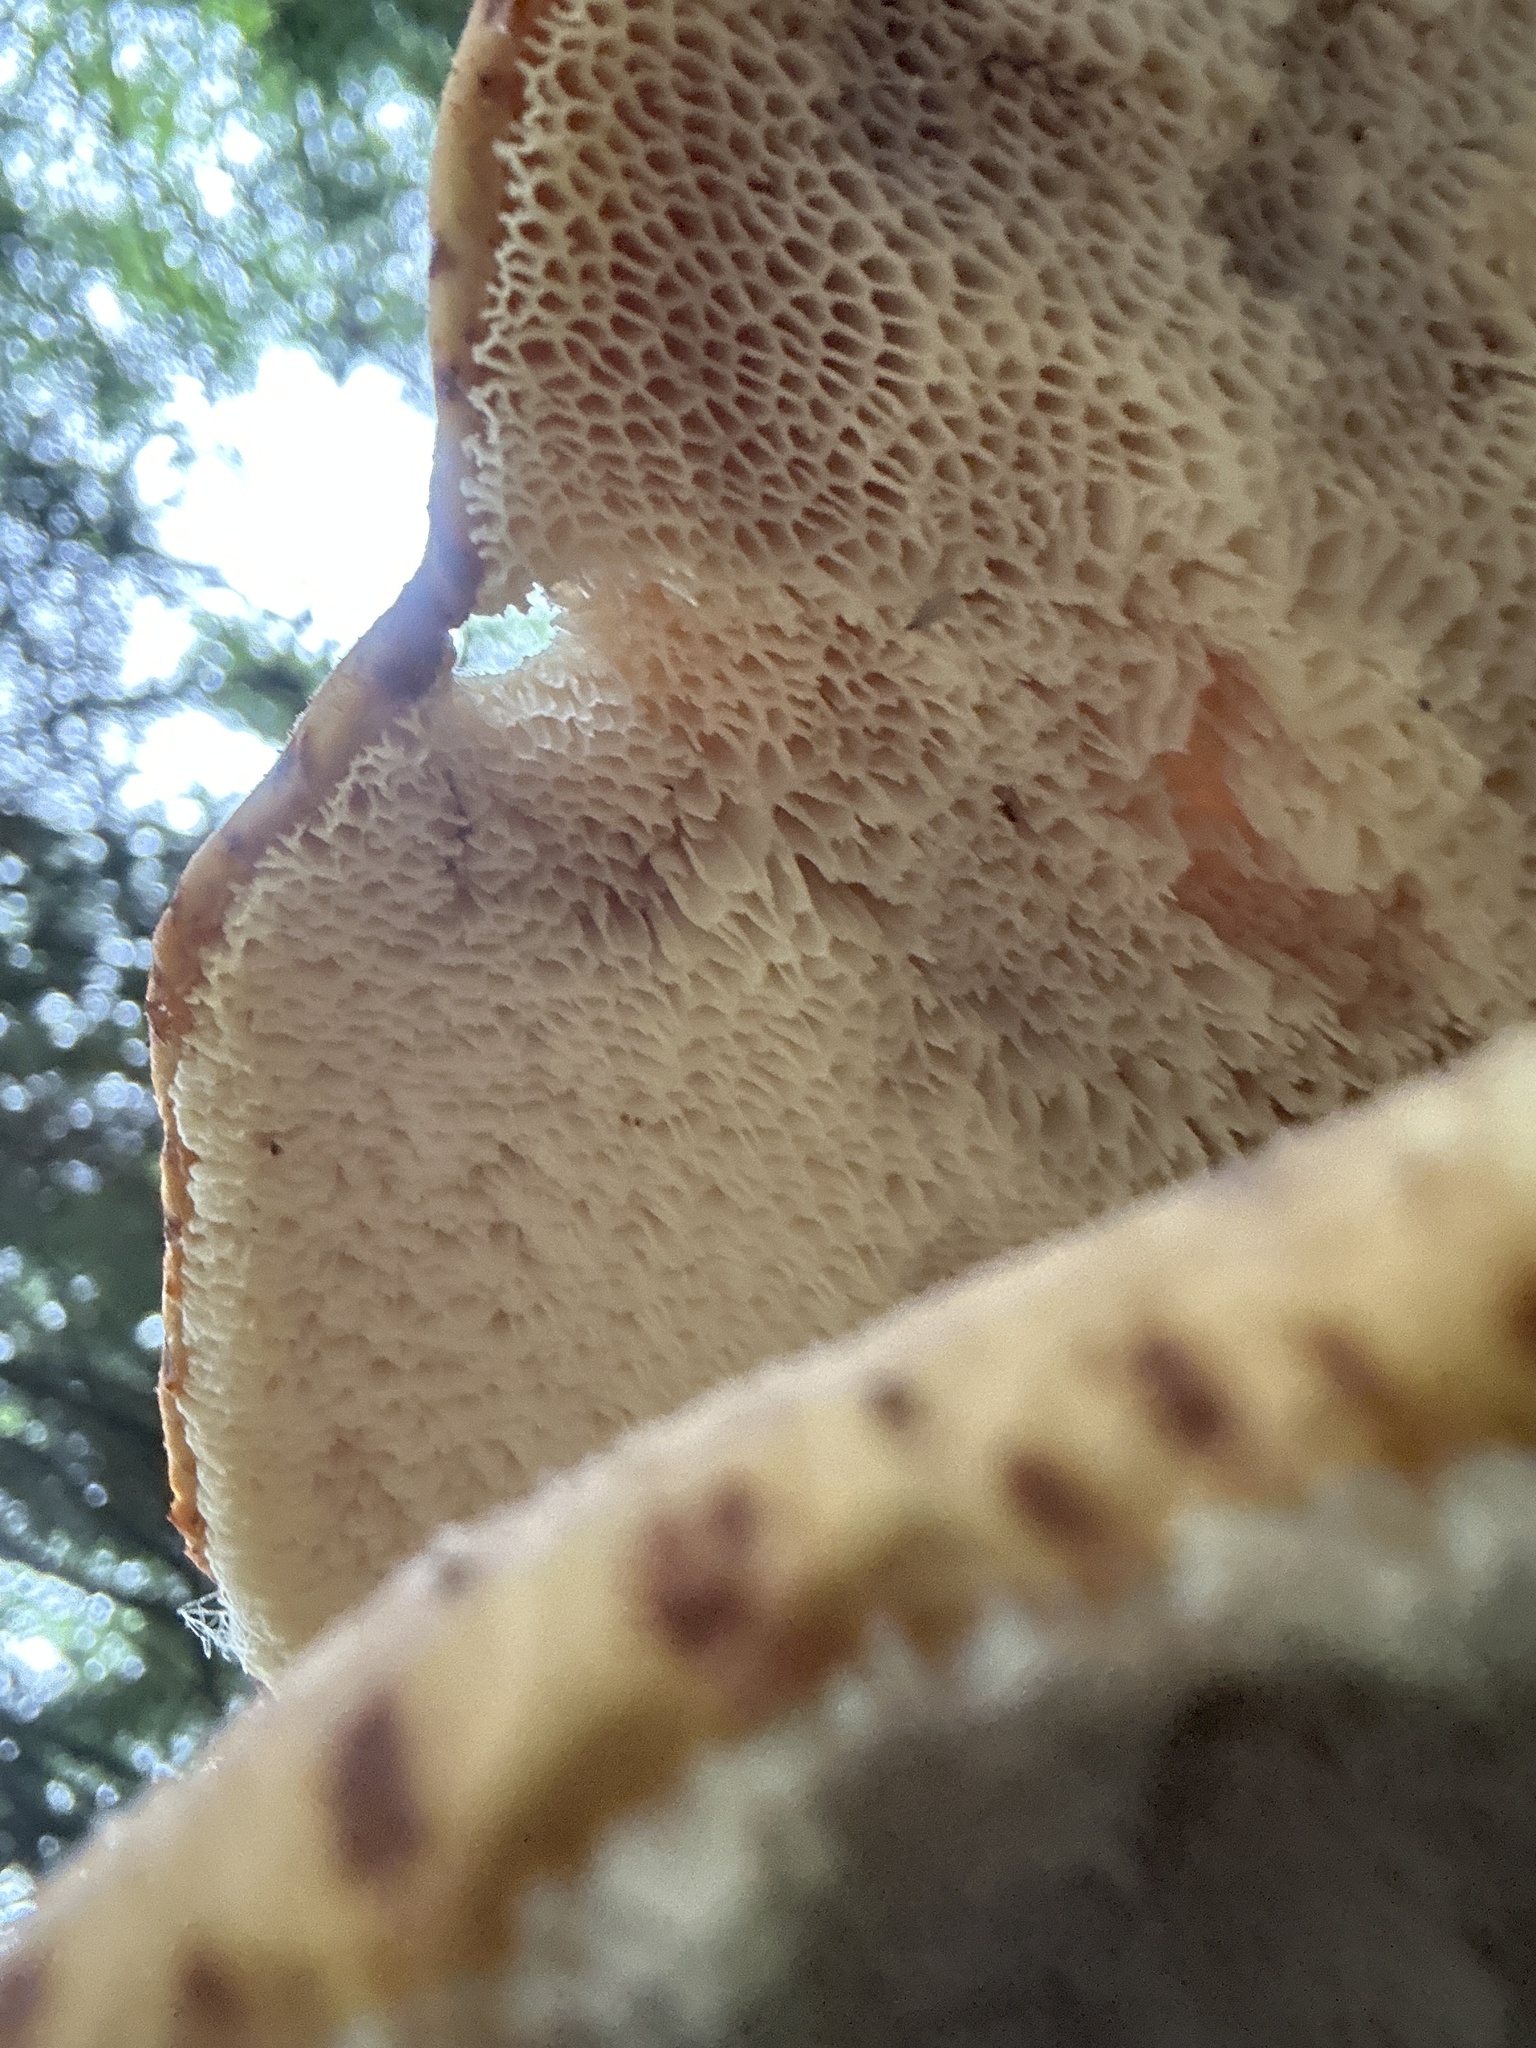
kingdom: Fungi
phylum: Basidiomycota
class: Agaricomycetes
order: Polyporales
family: Polyporaceae
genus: Cerioporus
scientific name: Cerioporus squamosus
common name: Dryad's saddle
